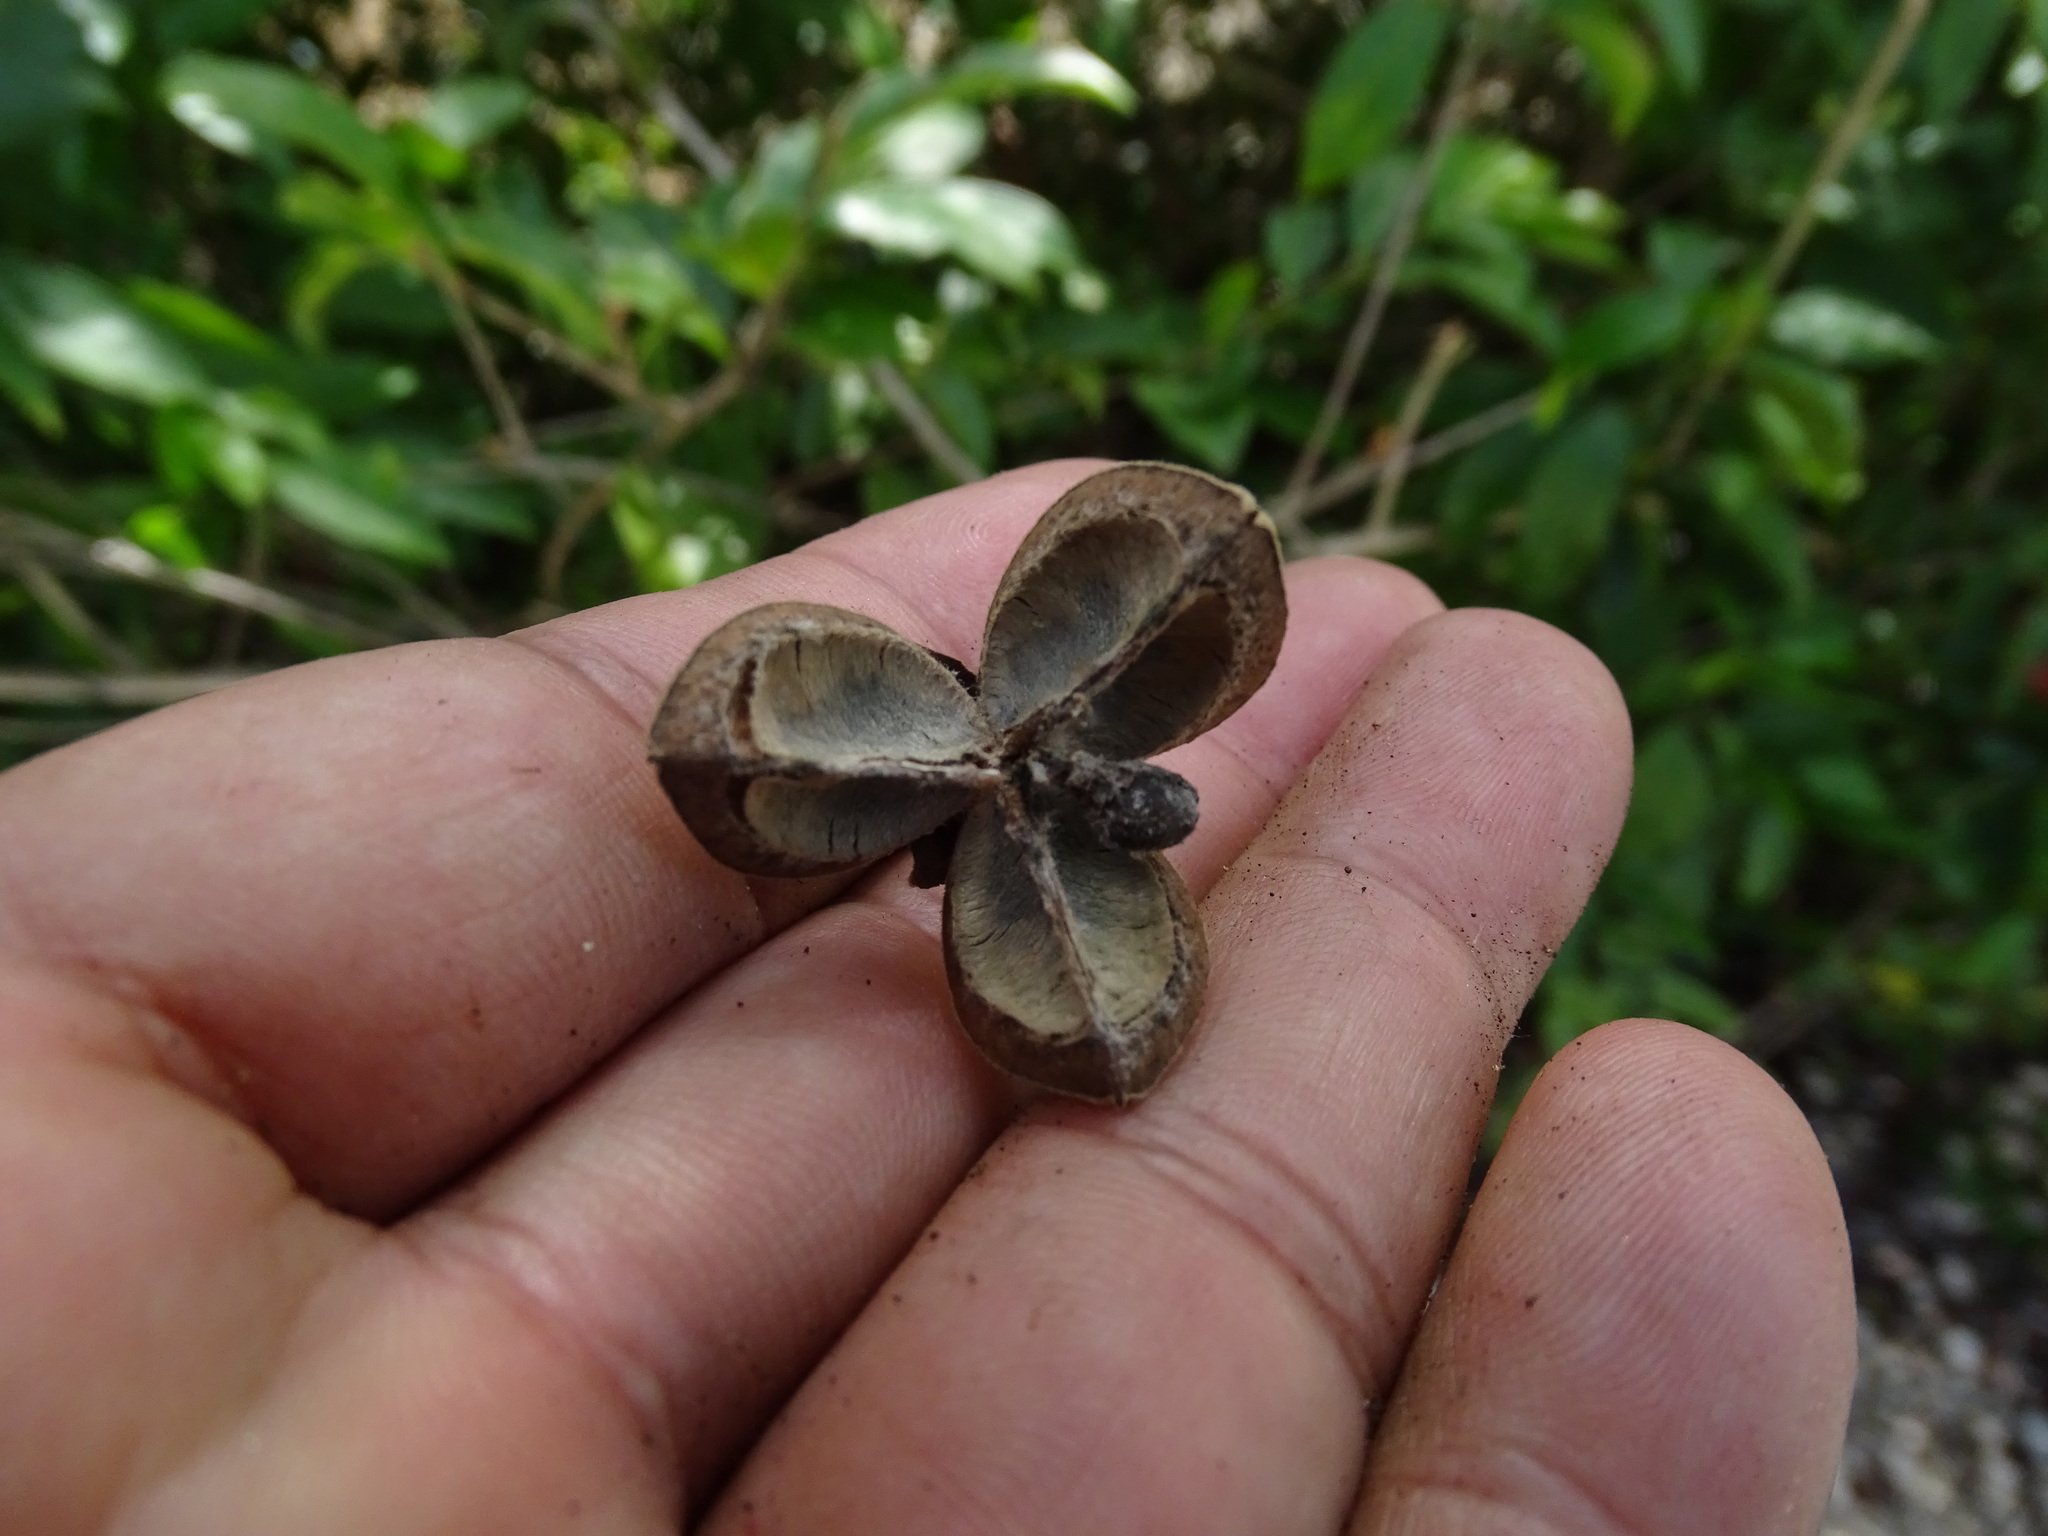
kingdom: Plantae
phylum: Tracheophyta
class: Magnoliopsida
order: Malvales
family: Malvaceae
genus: Hampea
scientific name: Hampea trilobata
